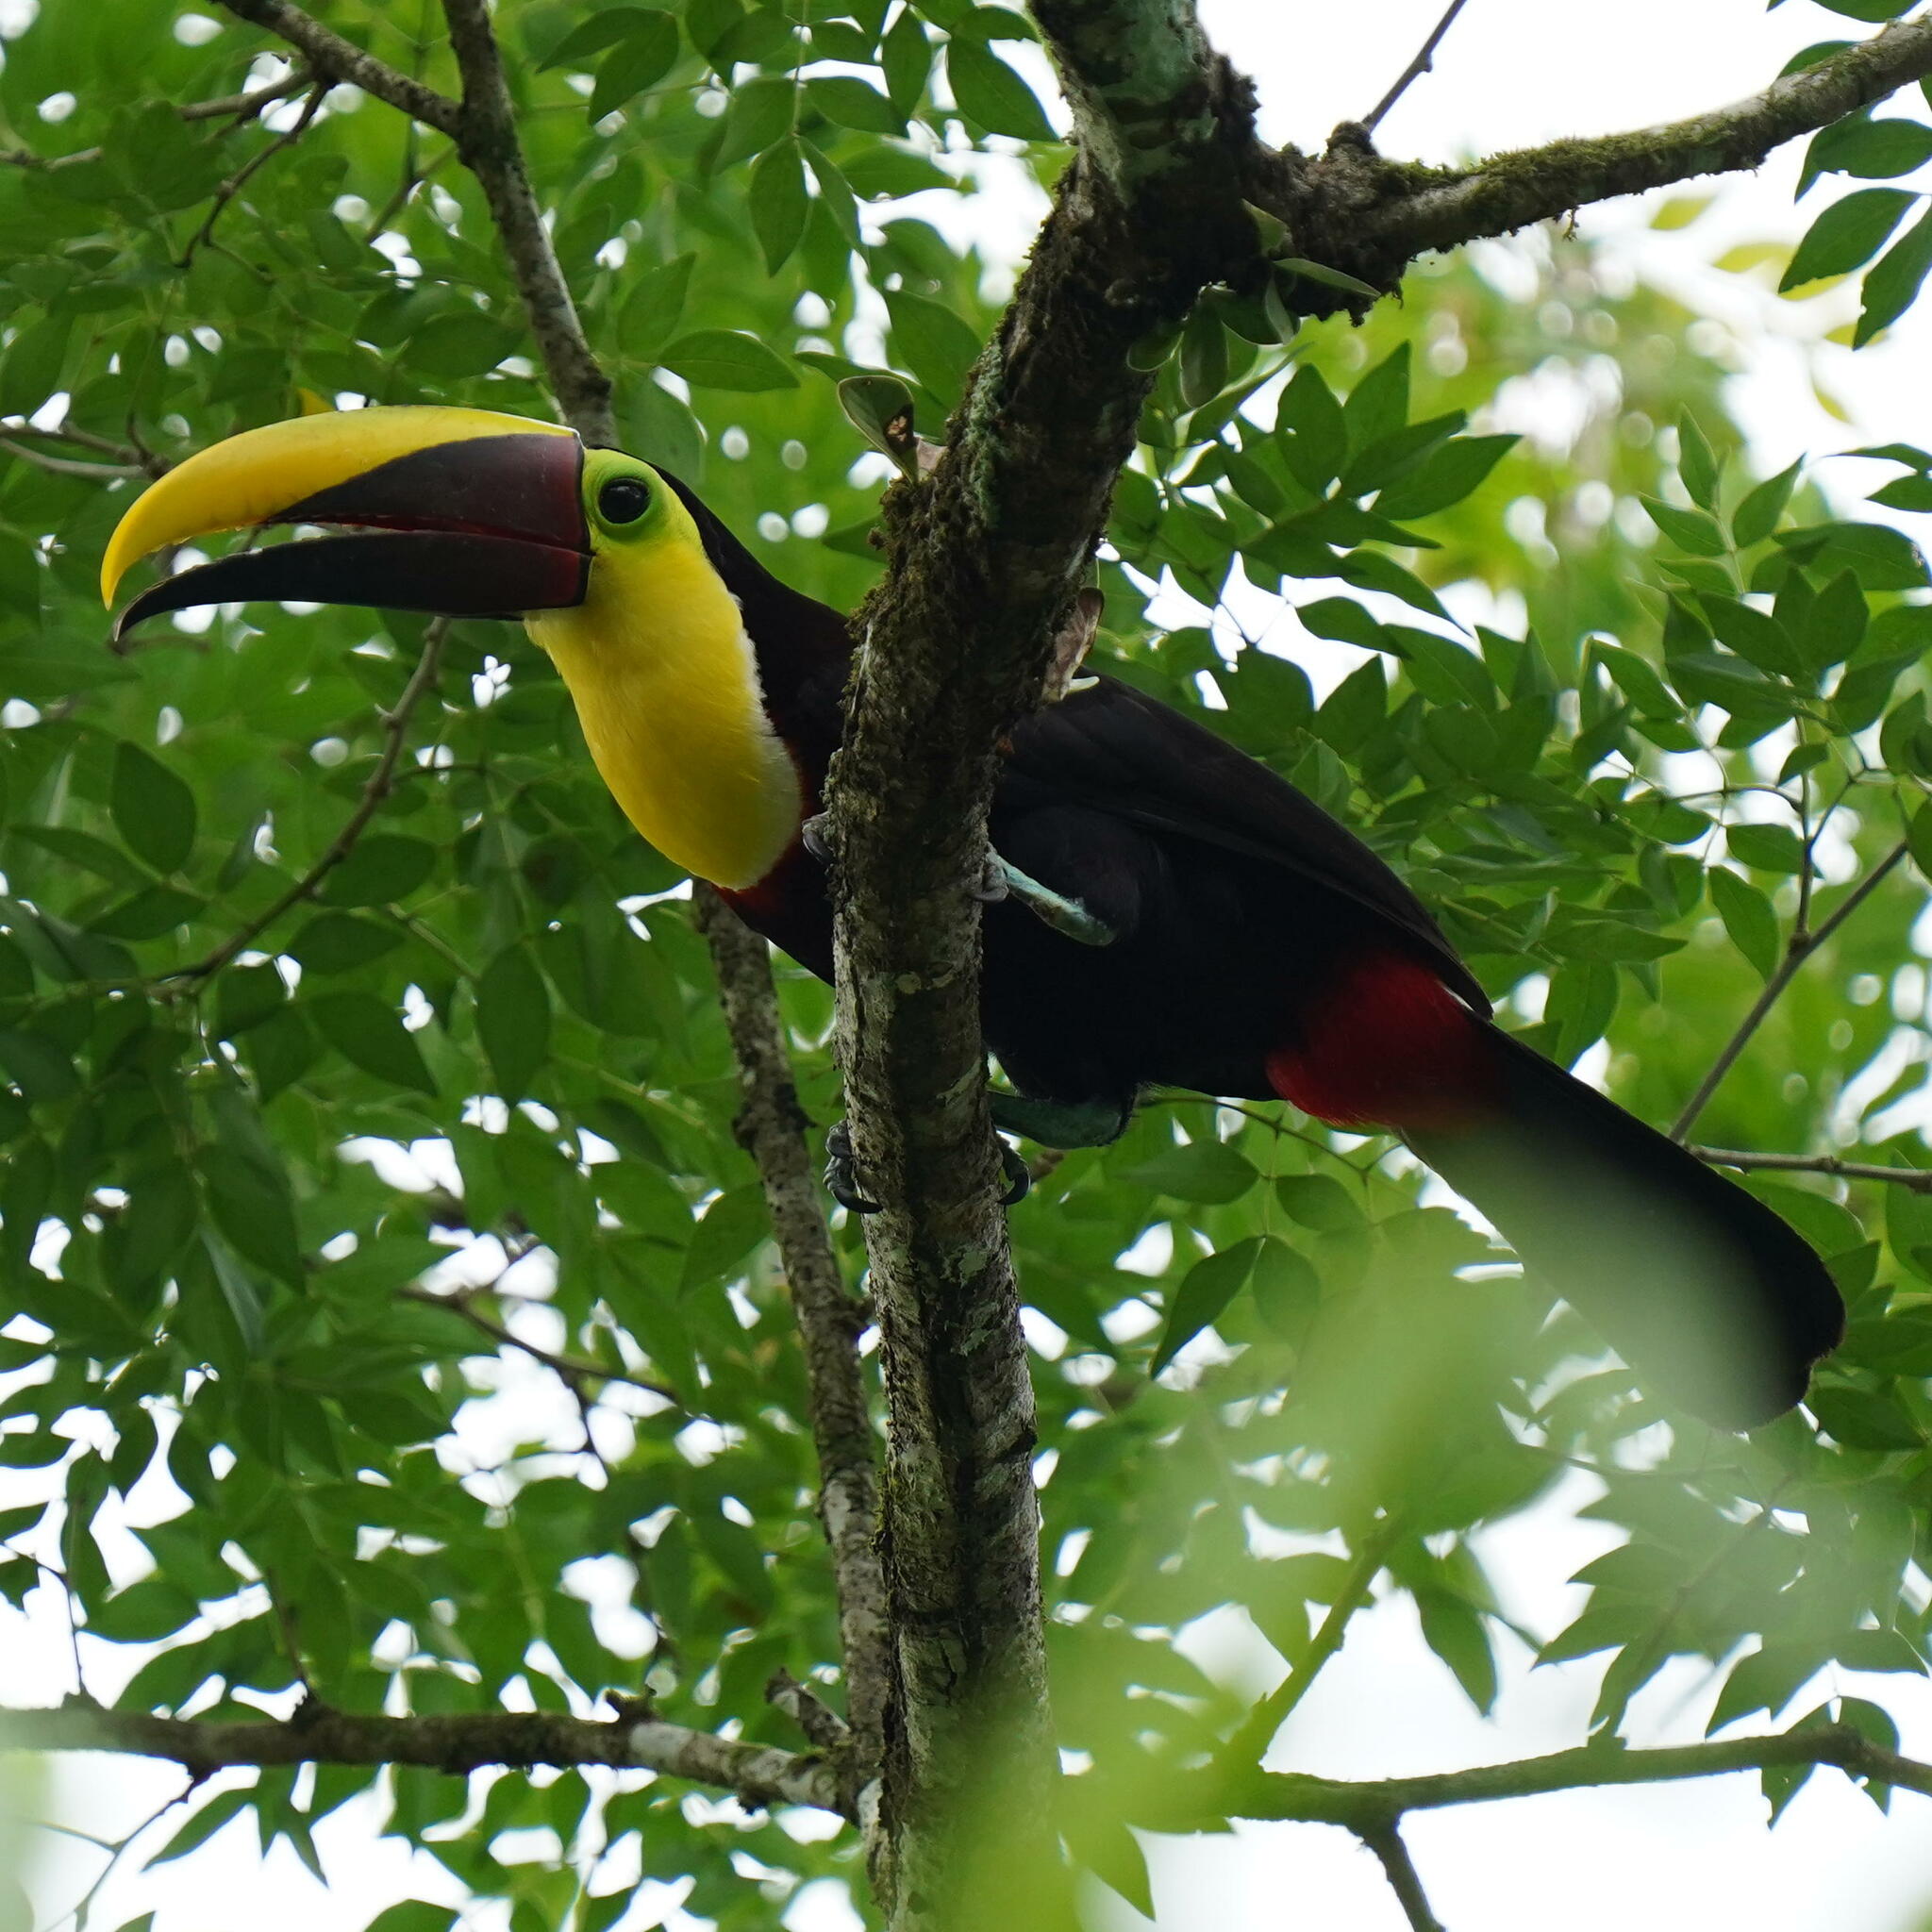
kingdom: Animalia
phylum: Chordata
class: Aves
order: Piciformes
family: Ramphastidae
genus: Ramphastos
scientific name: Ramphastos ambiguus
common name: Yellow-throated toucan
